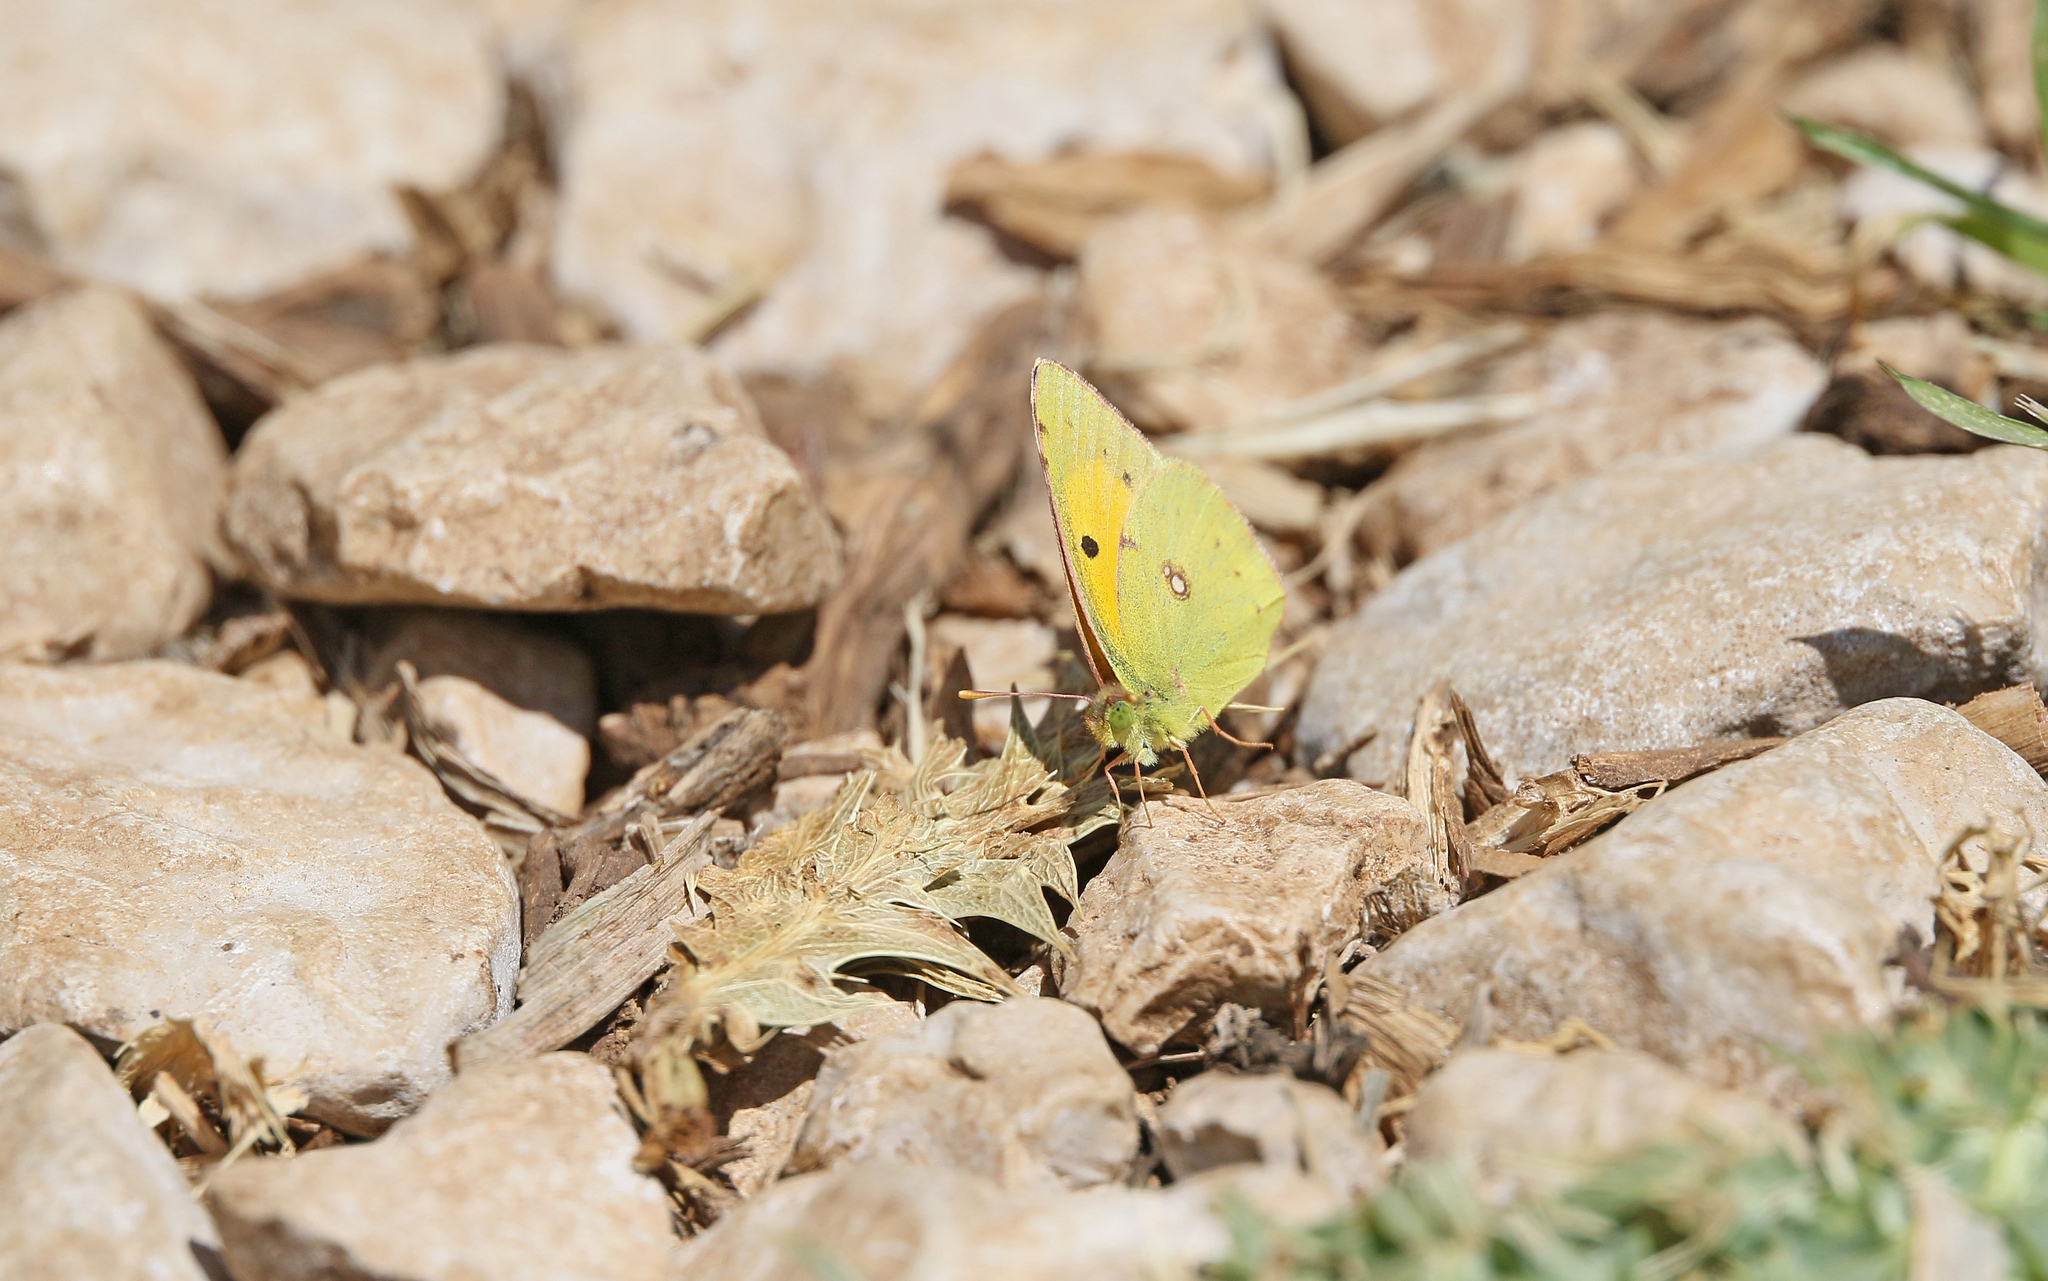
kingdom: Animalia
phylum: Arthropoda
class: Insecta
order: Lepidoptera
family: Pieridae
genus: Colias
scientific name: Colias croceus
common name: Clouded yellow
